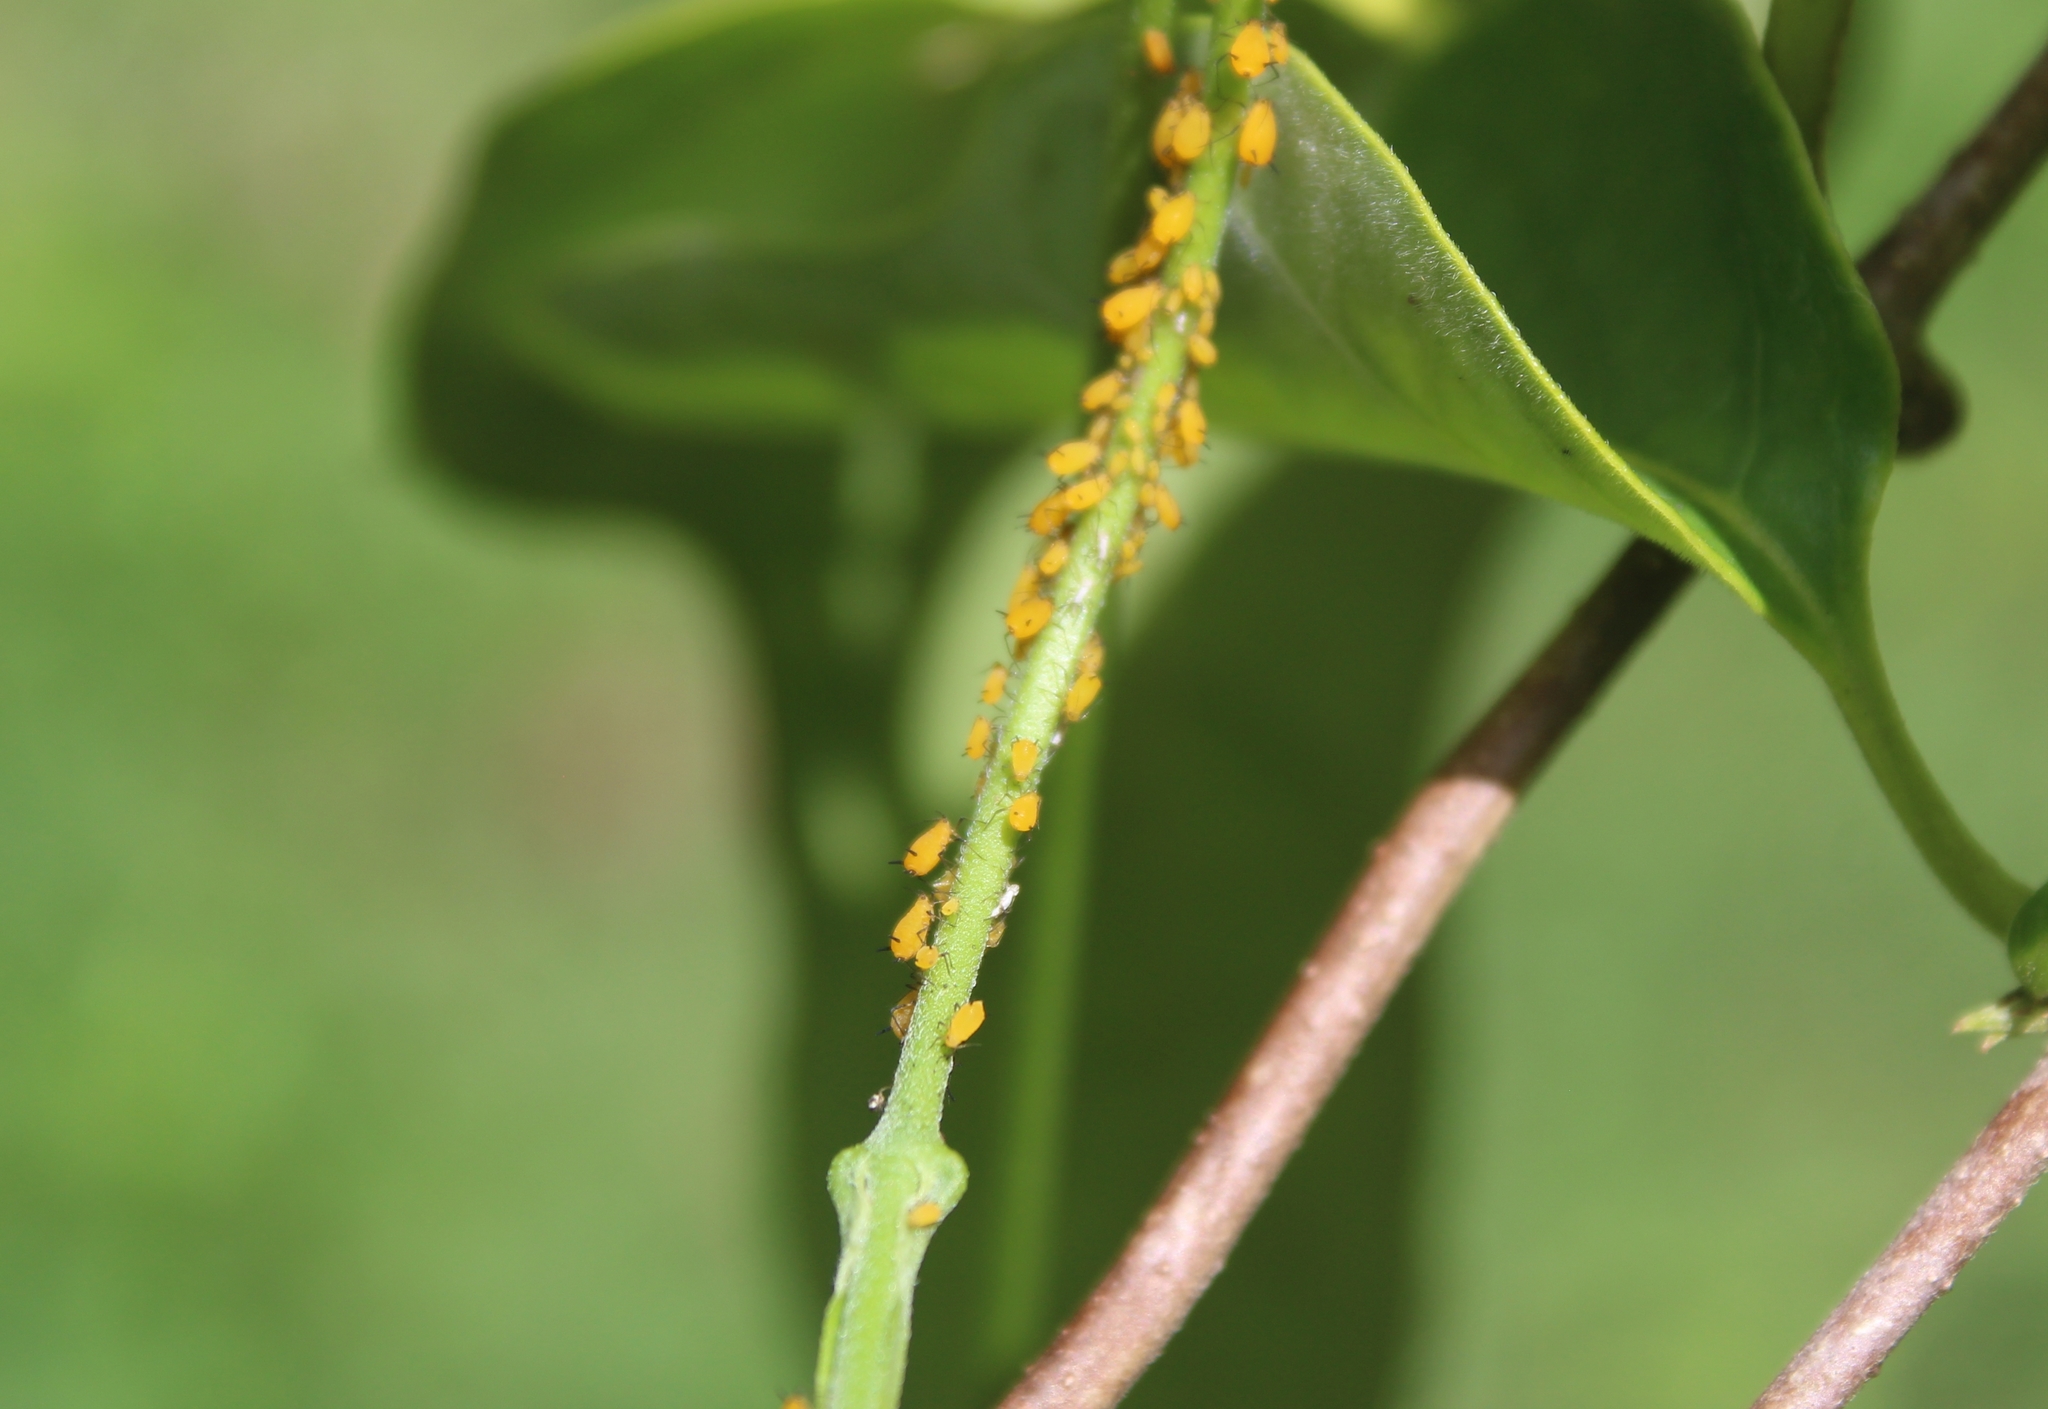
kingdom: Animalia
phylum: Arthropoda
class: Insecta
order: Hemiptera
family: Aphididae
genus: Aphis
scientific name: Aphis nerii
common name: Oleander aphid
